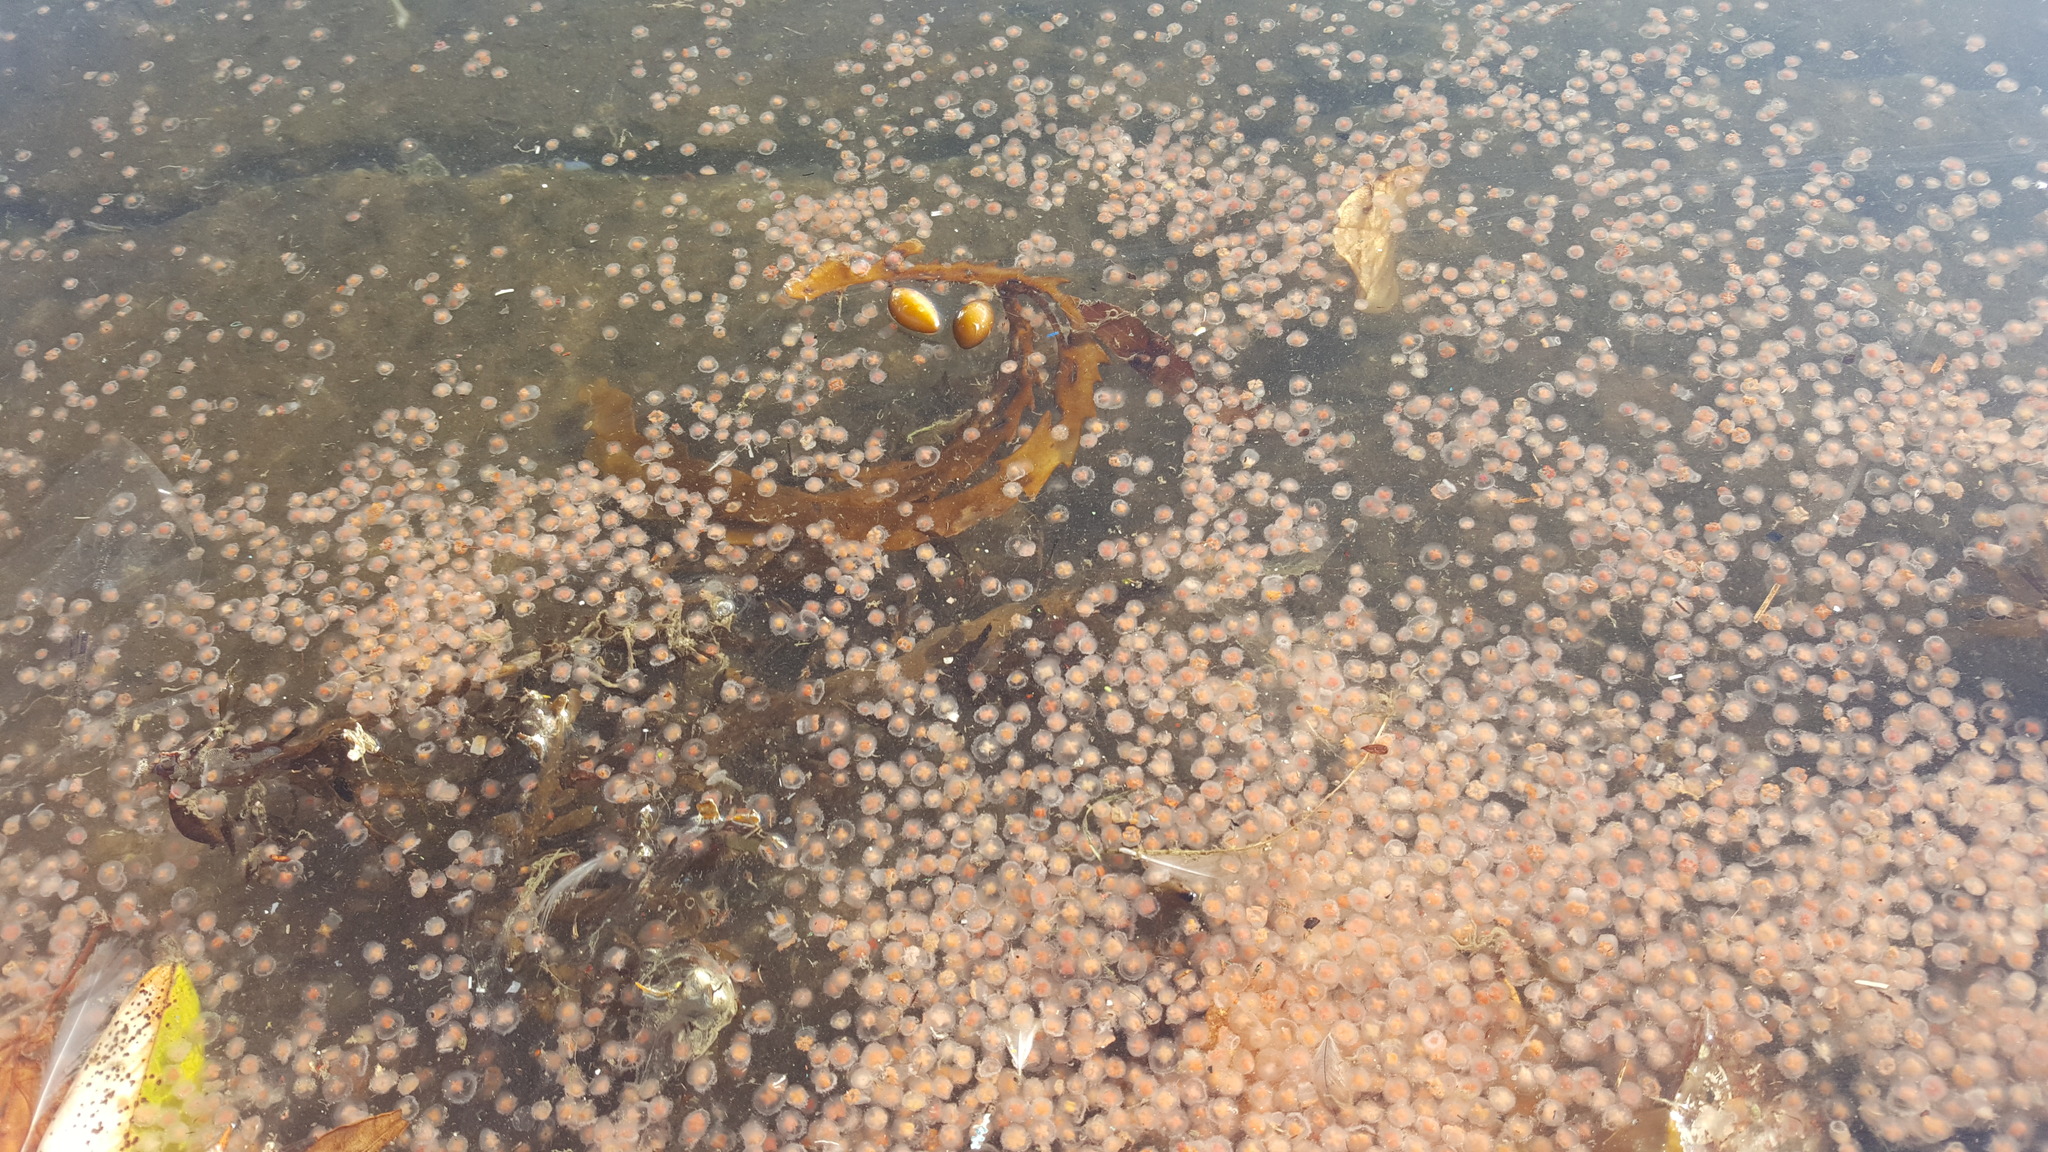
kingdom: Animalia
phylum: Cnidaria
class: Hydrozoa
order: Anthoathecata
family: Oceaniidae
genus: Turritopsis
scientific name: Turritopsis rubra
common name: Crimson jelly
